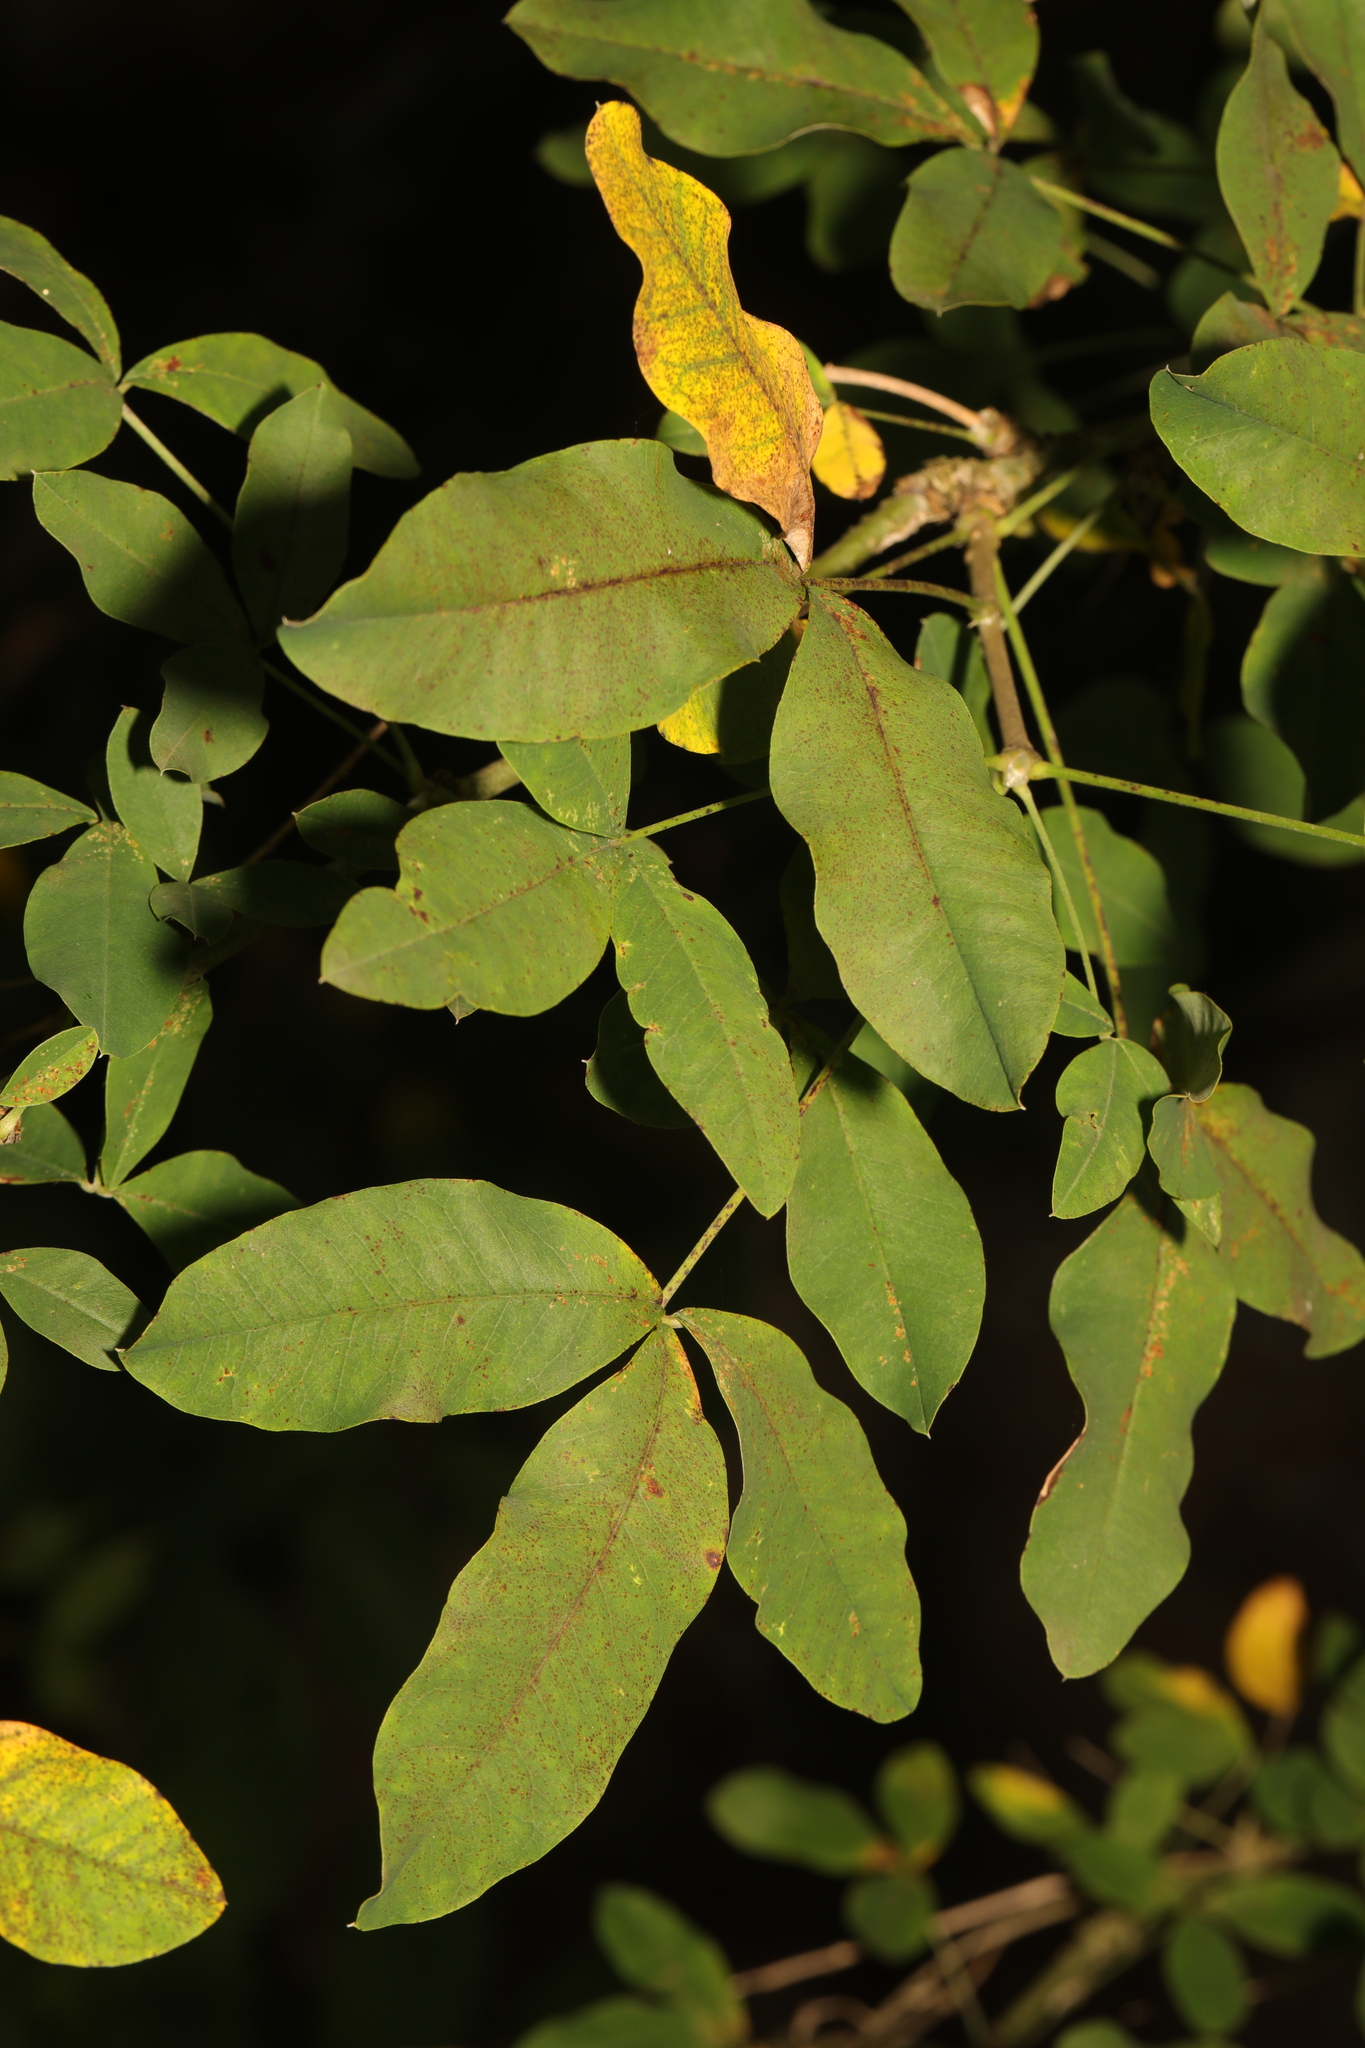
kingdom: Plantae
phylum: Tracheophyta
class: Magnoliopsida
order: Fabales
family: Fabaceae
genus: Laburnum
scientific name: Laburnum anagyroides
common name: Laburnum
